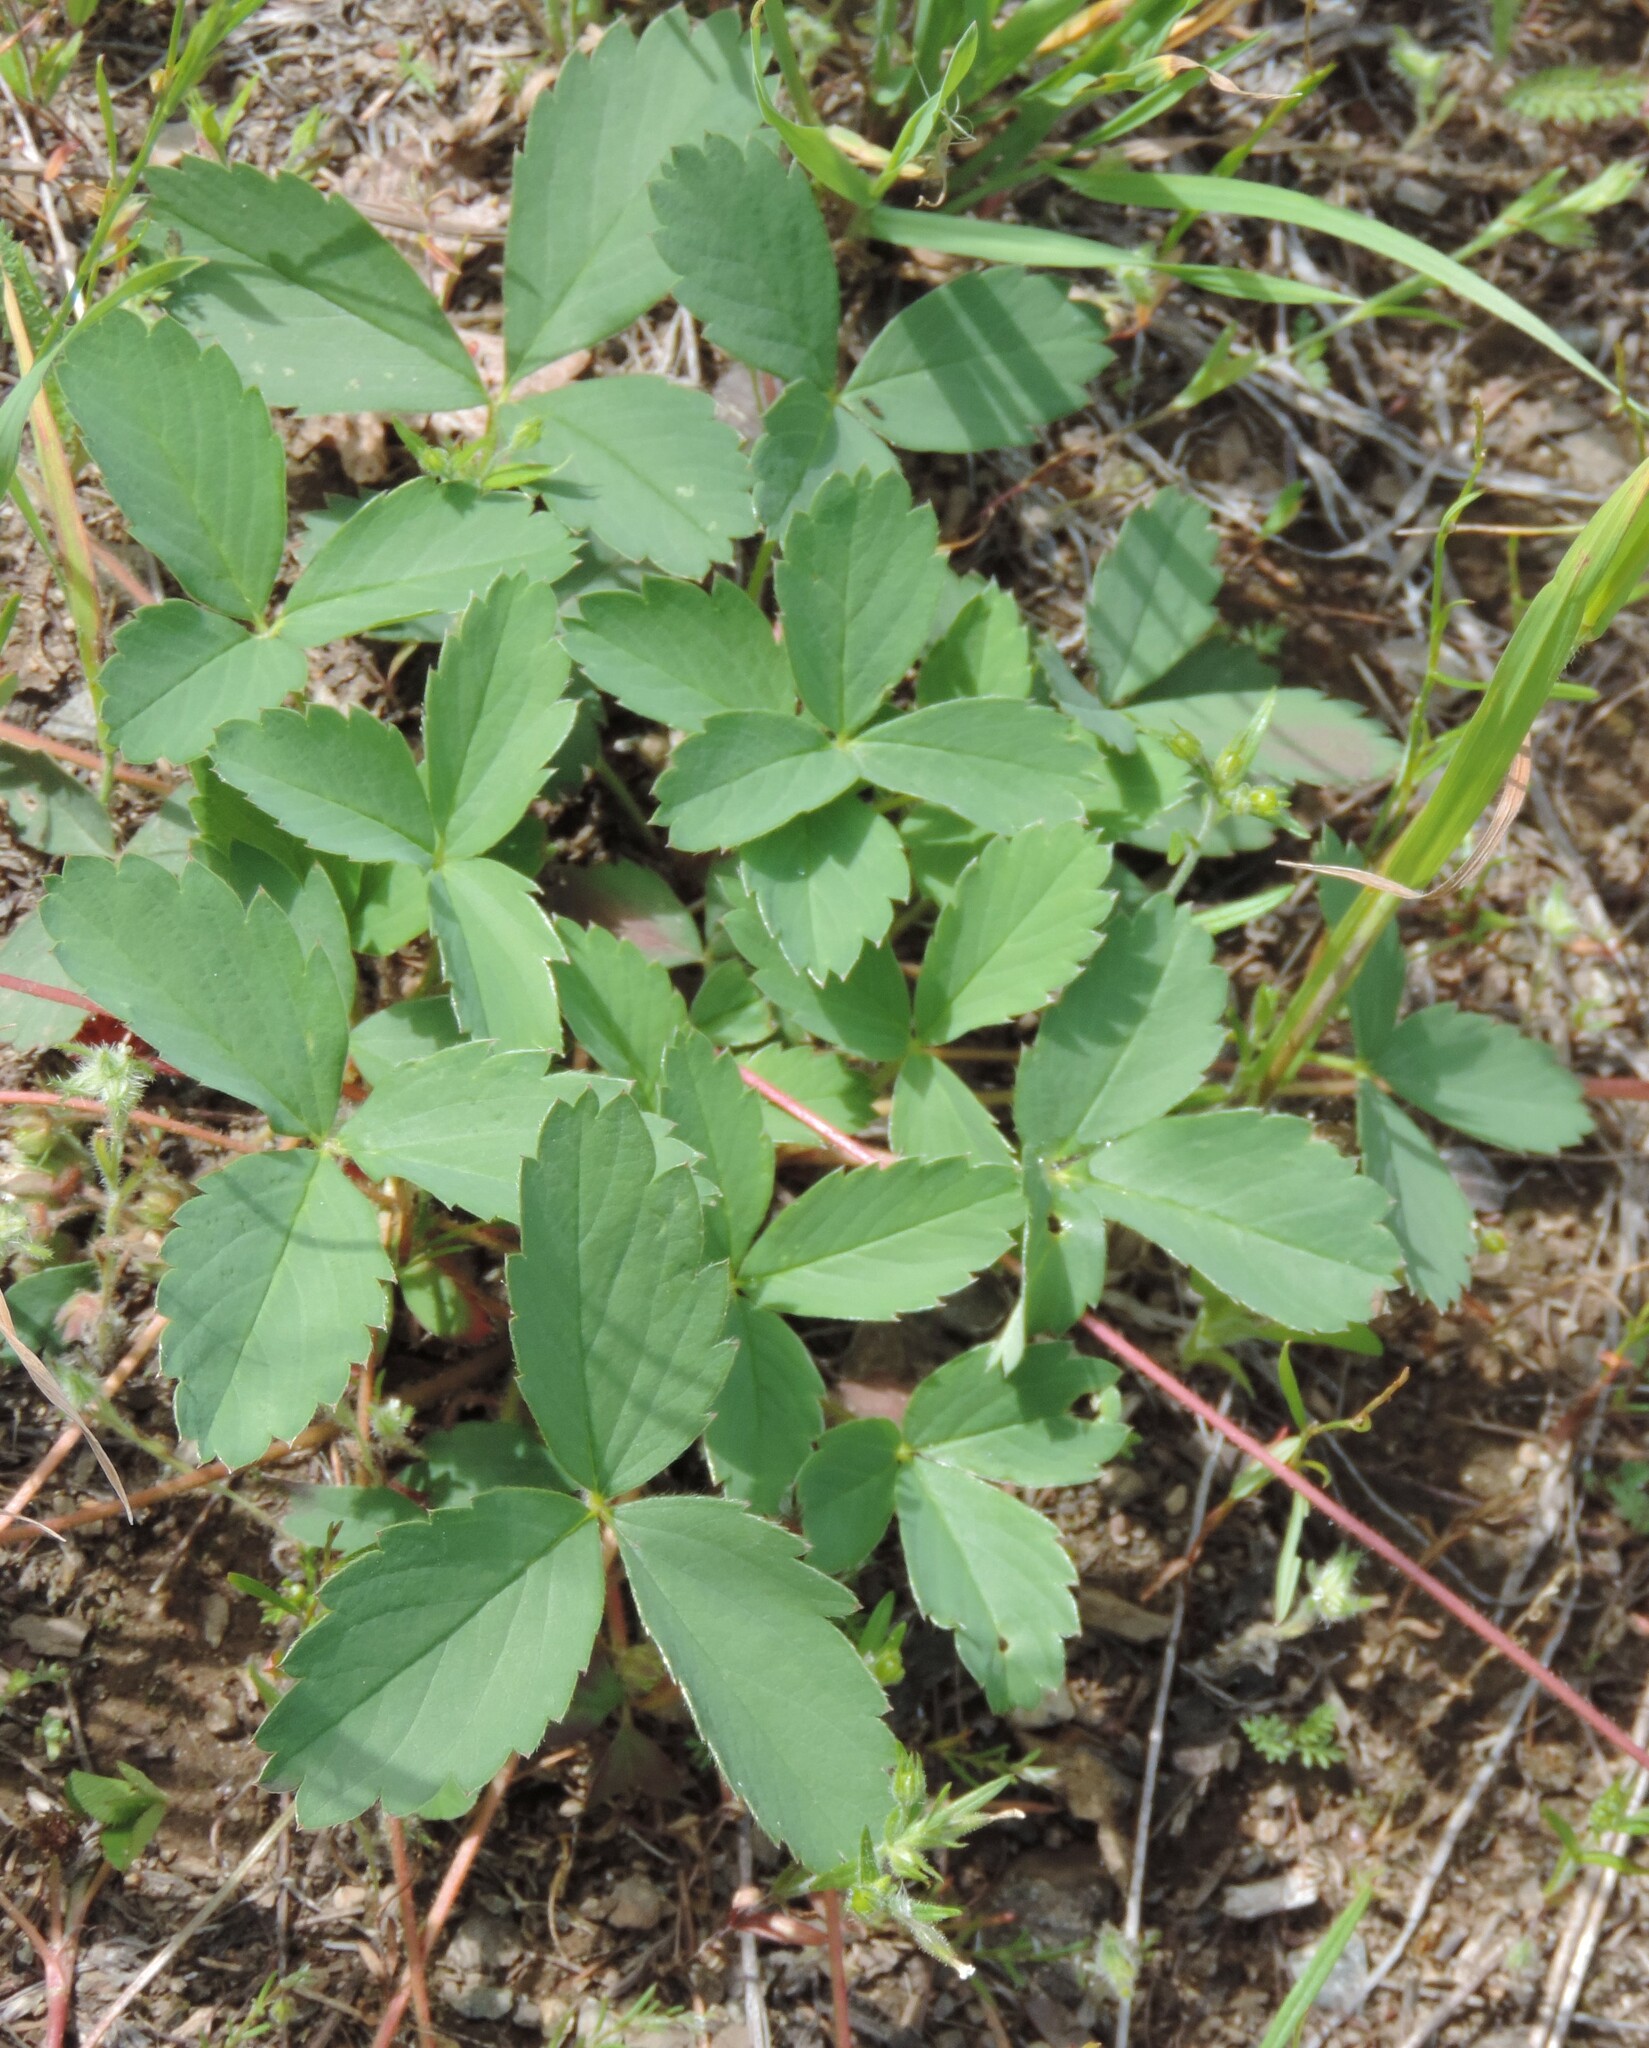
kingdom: Plantae
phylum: Tracheophyta
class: Magnoliopsida
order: Rosales
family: Rosaceae
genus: Fragaria
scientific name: Fragaria virginiana
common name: Thickleaved wild strawberry
